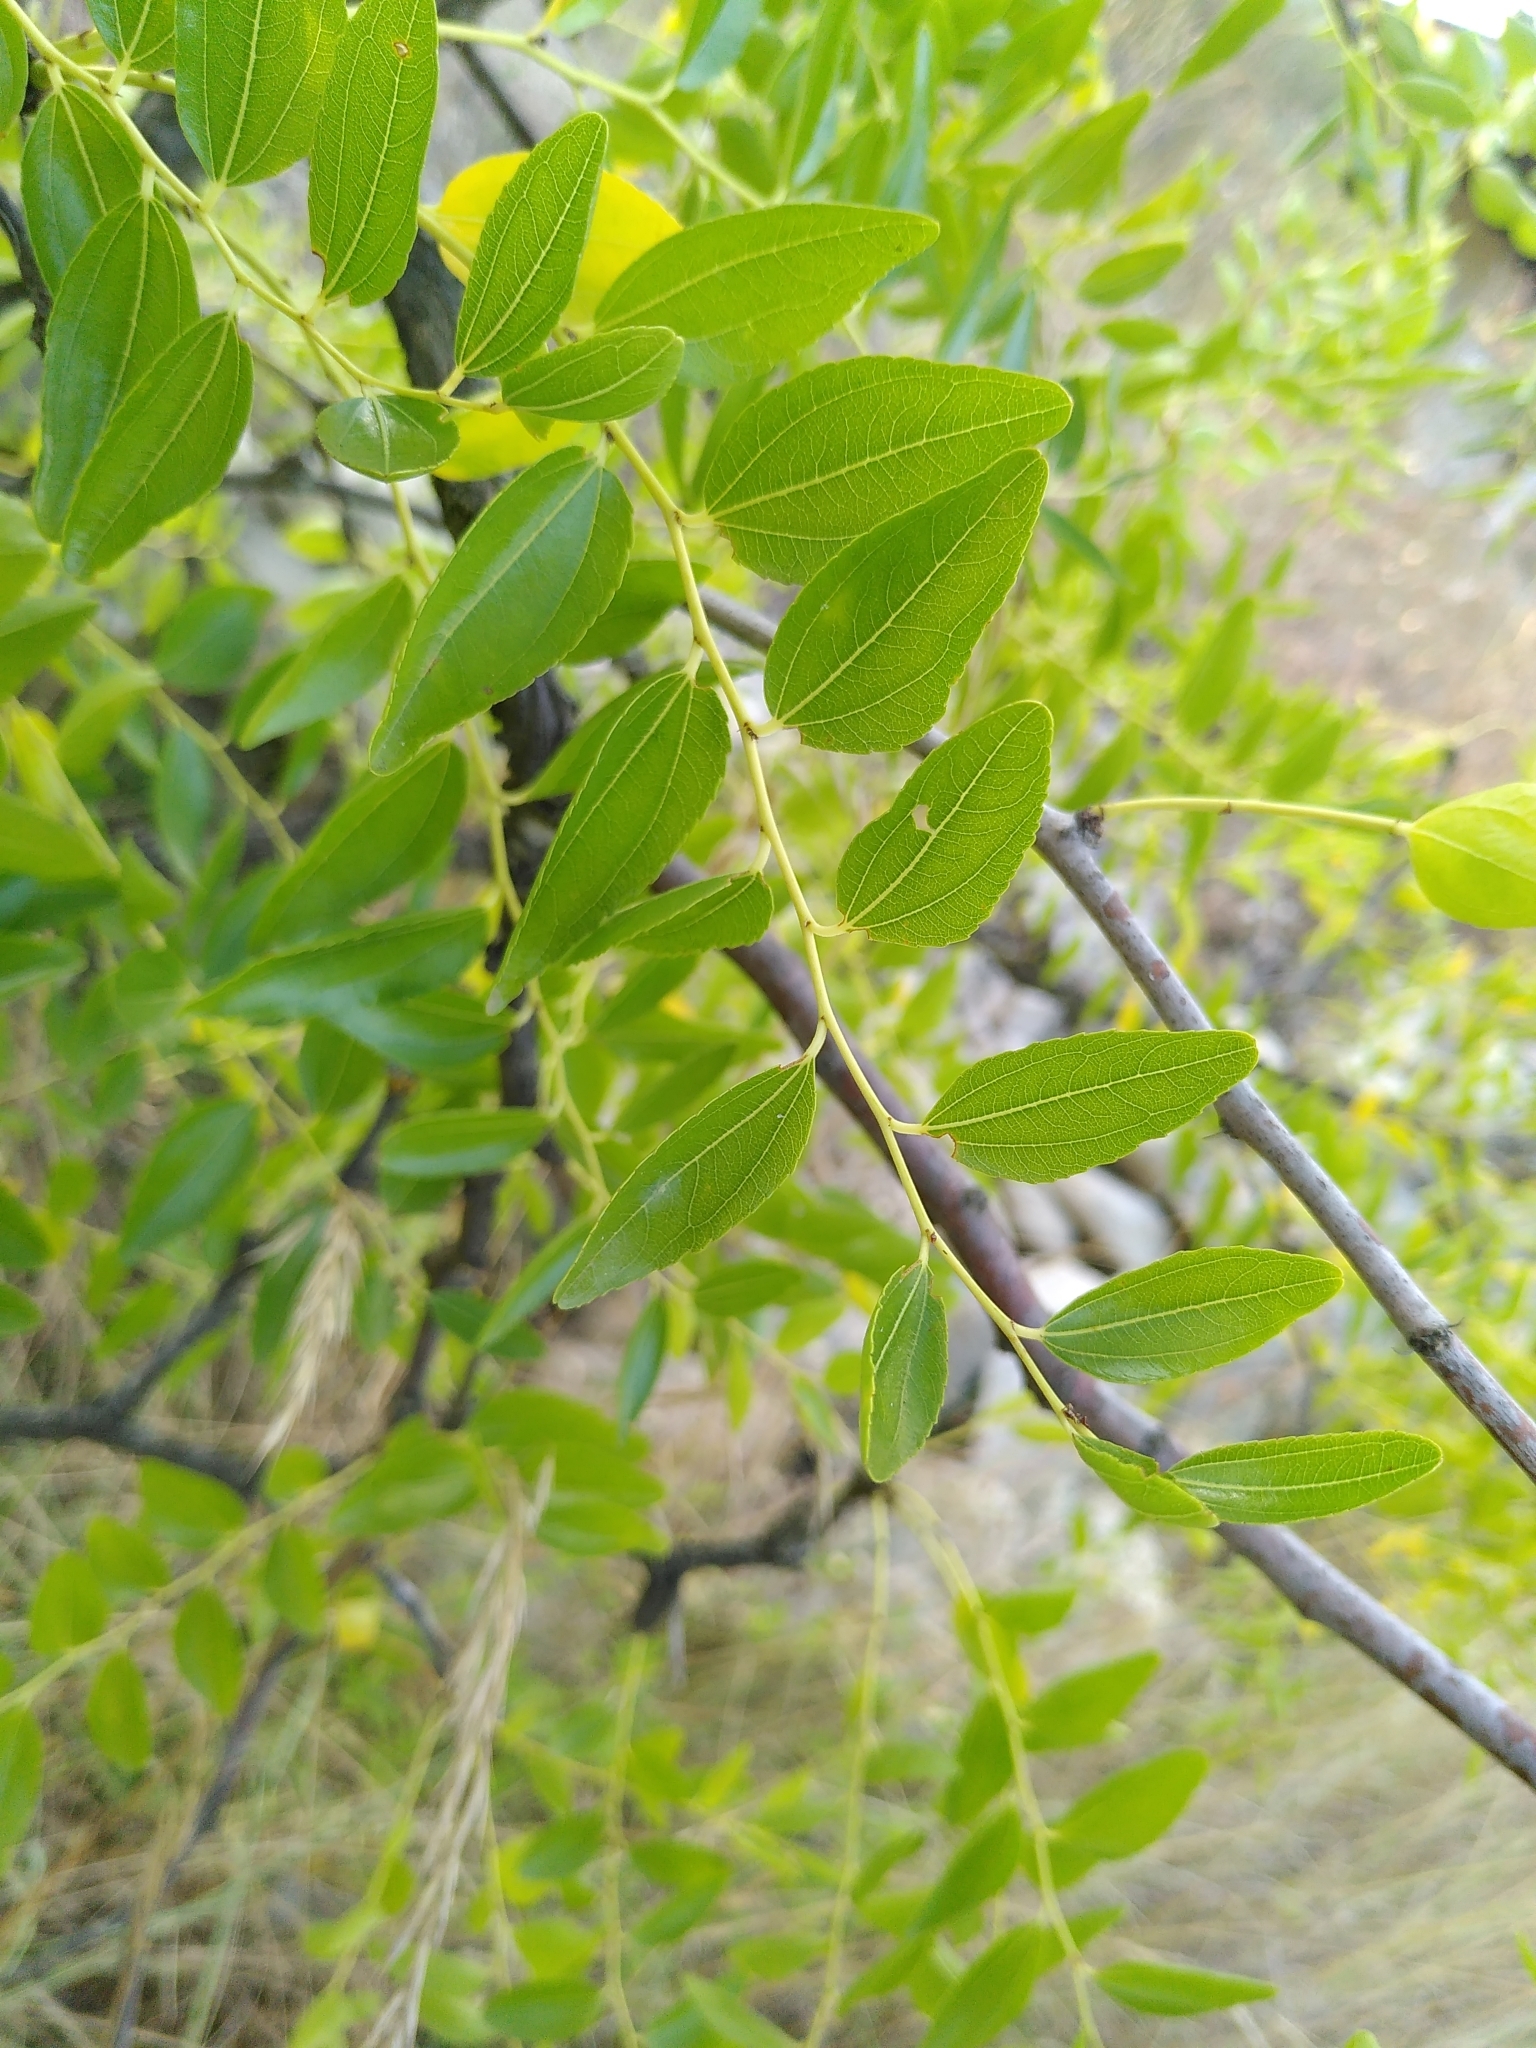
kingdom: Plantae
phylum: Tracheophyta
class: Magnoliopsida
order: Rosales
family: Rhamnaceae
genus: Ziziphus
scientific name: Ziziphus jujuba
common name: Jujube red date
